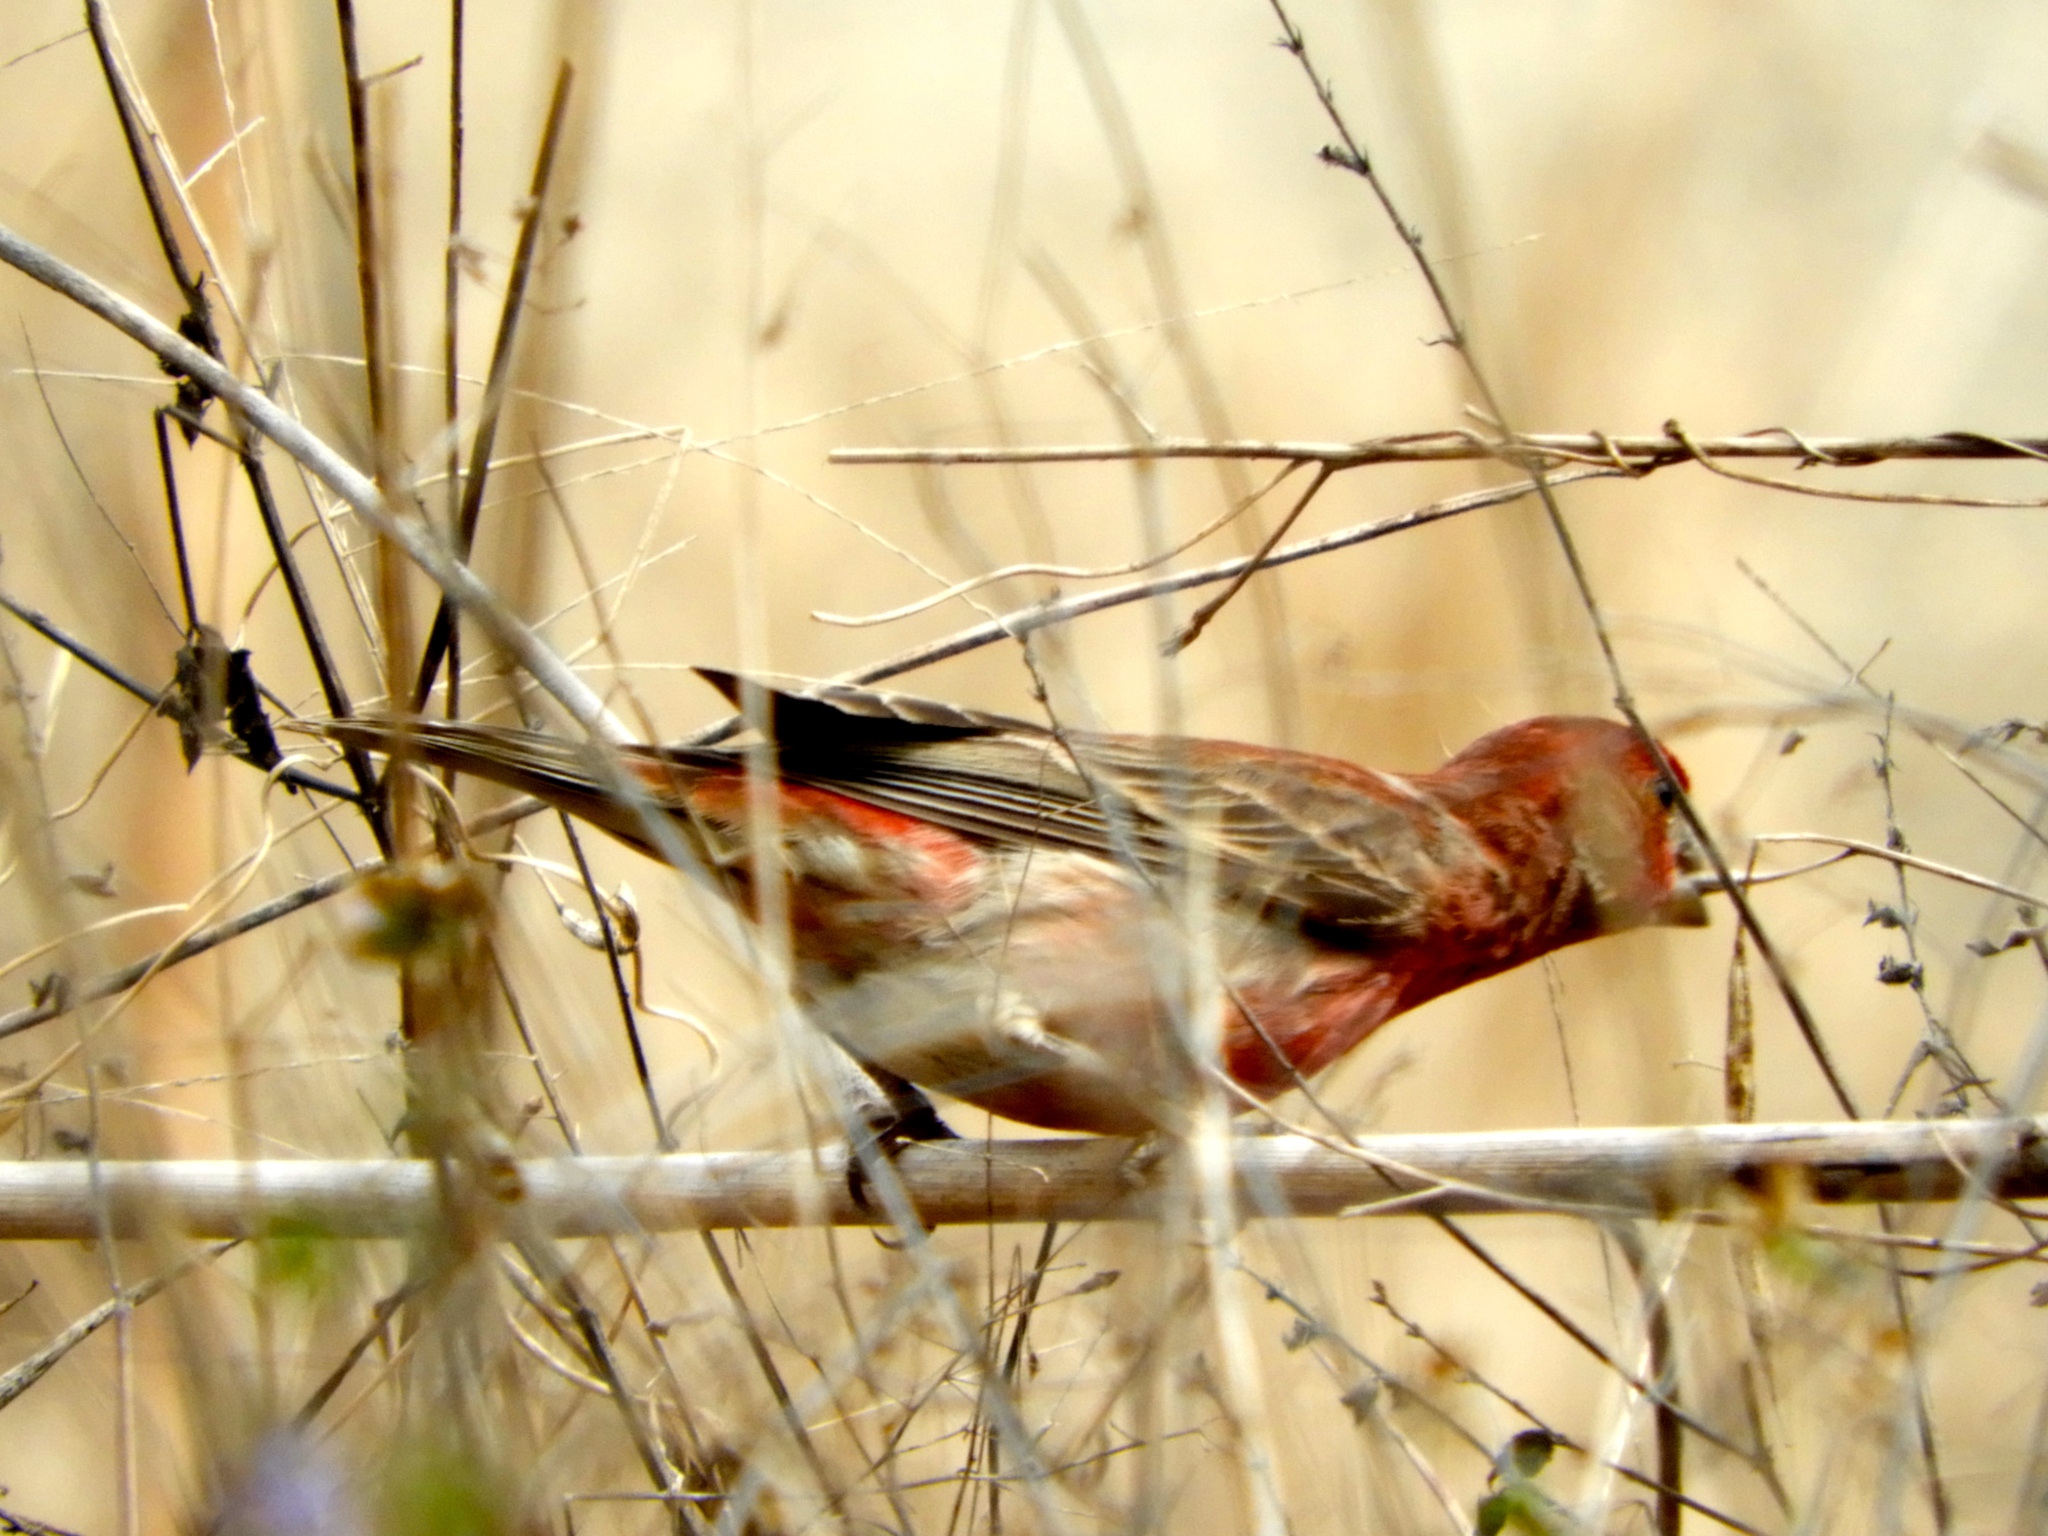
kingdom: Animalia
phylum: Chordata
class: Aves
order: Passeriformes
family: Fringillidae
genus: Haemorhous
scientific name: Haemorhous mexicanus
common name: House finch
